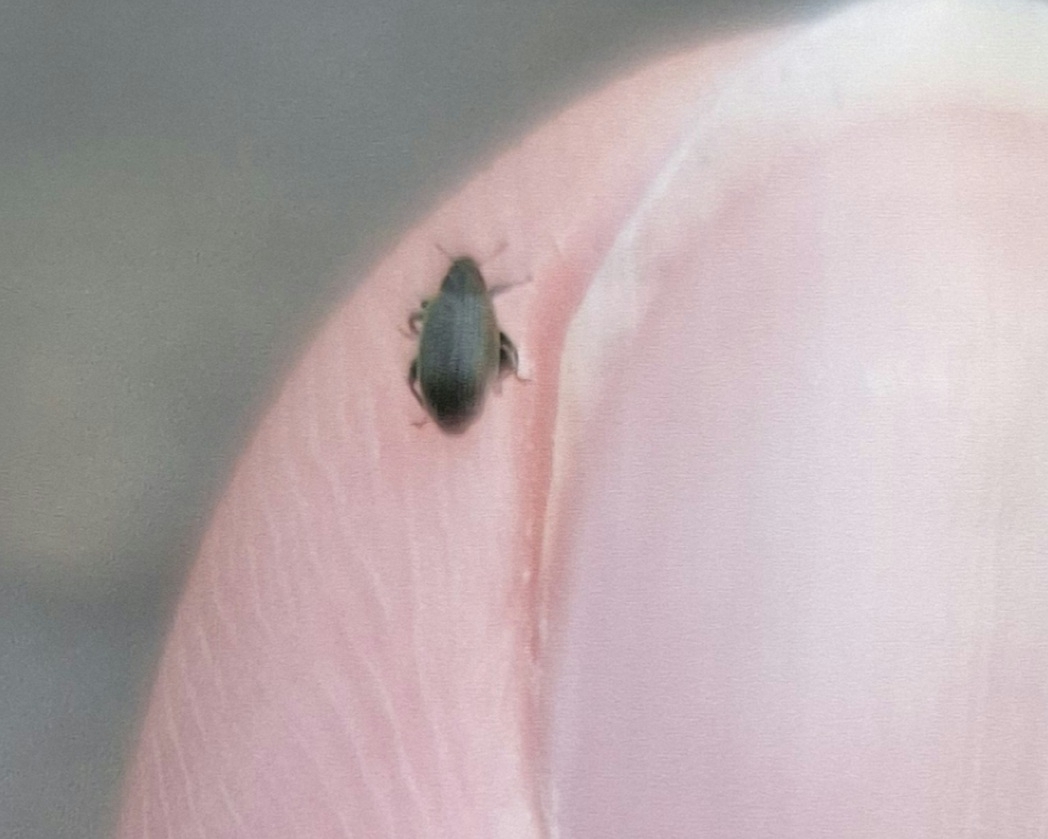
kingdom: Animalia
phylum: Arthropoda
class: Insecta
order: Coleoptera
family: Curculionidae
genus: Orchestes
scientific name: Orchestes fagi
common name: Beech leaf miner
